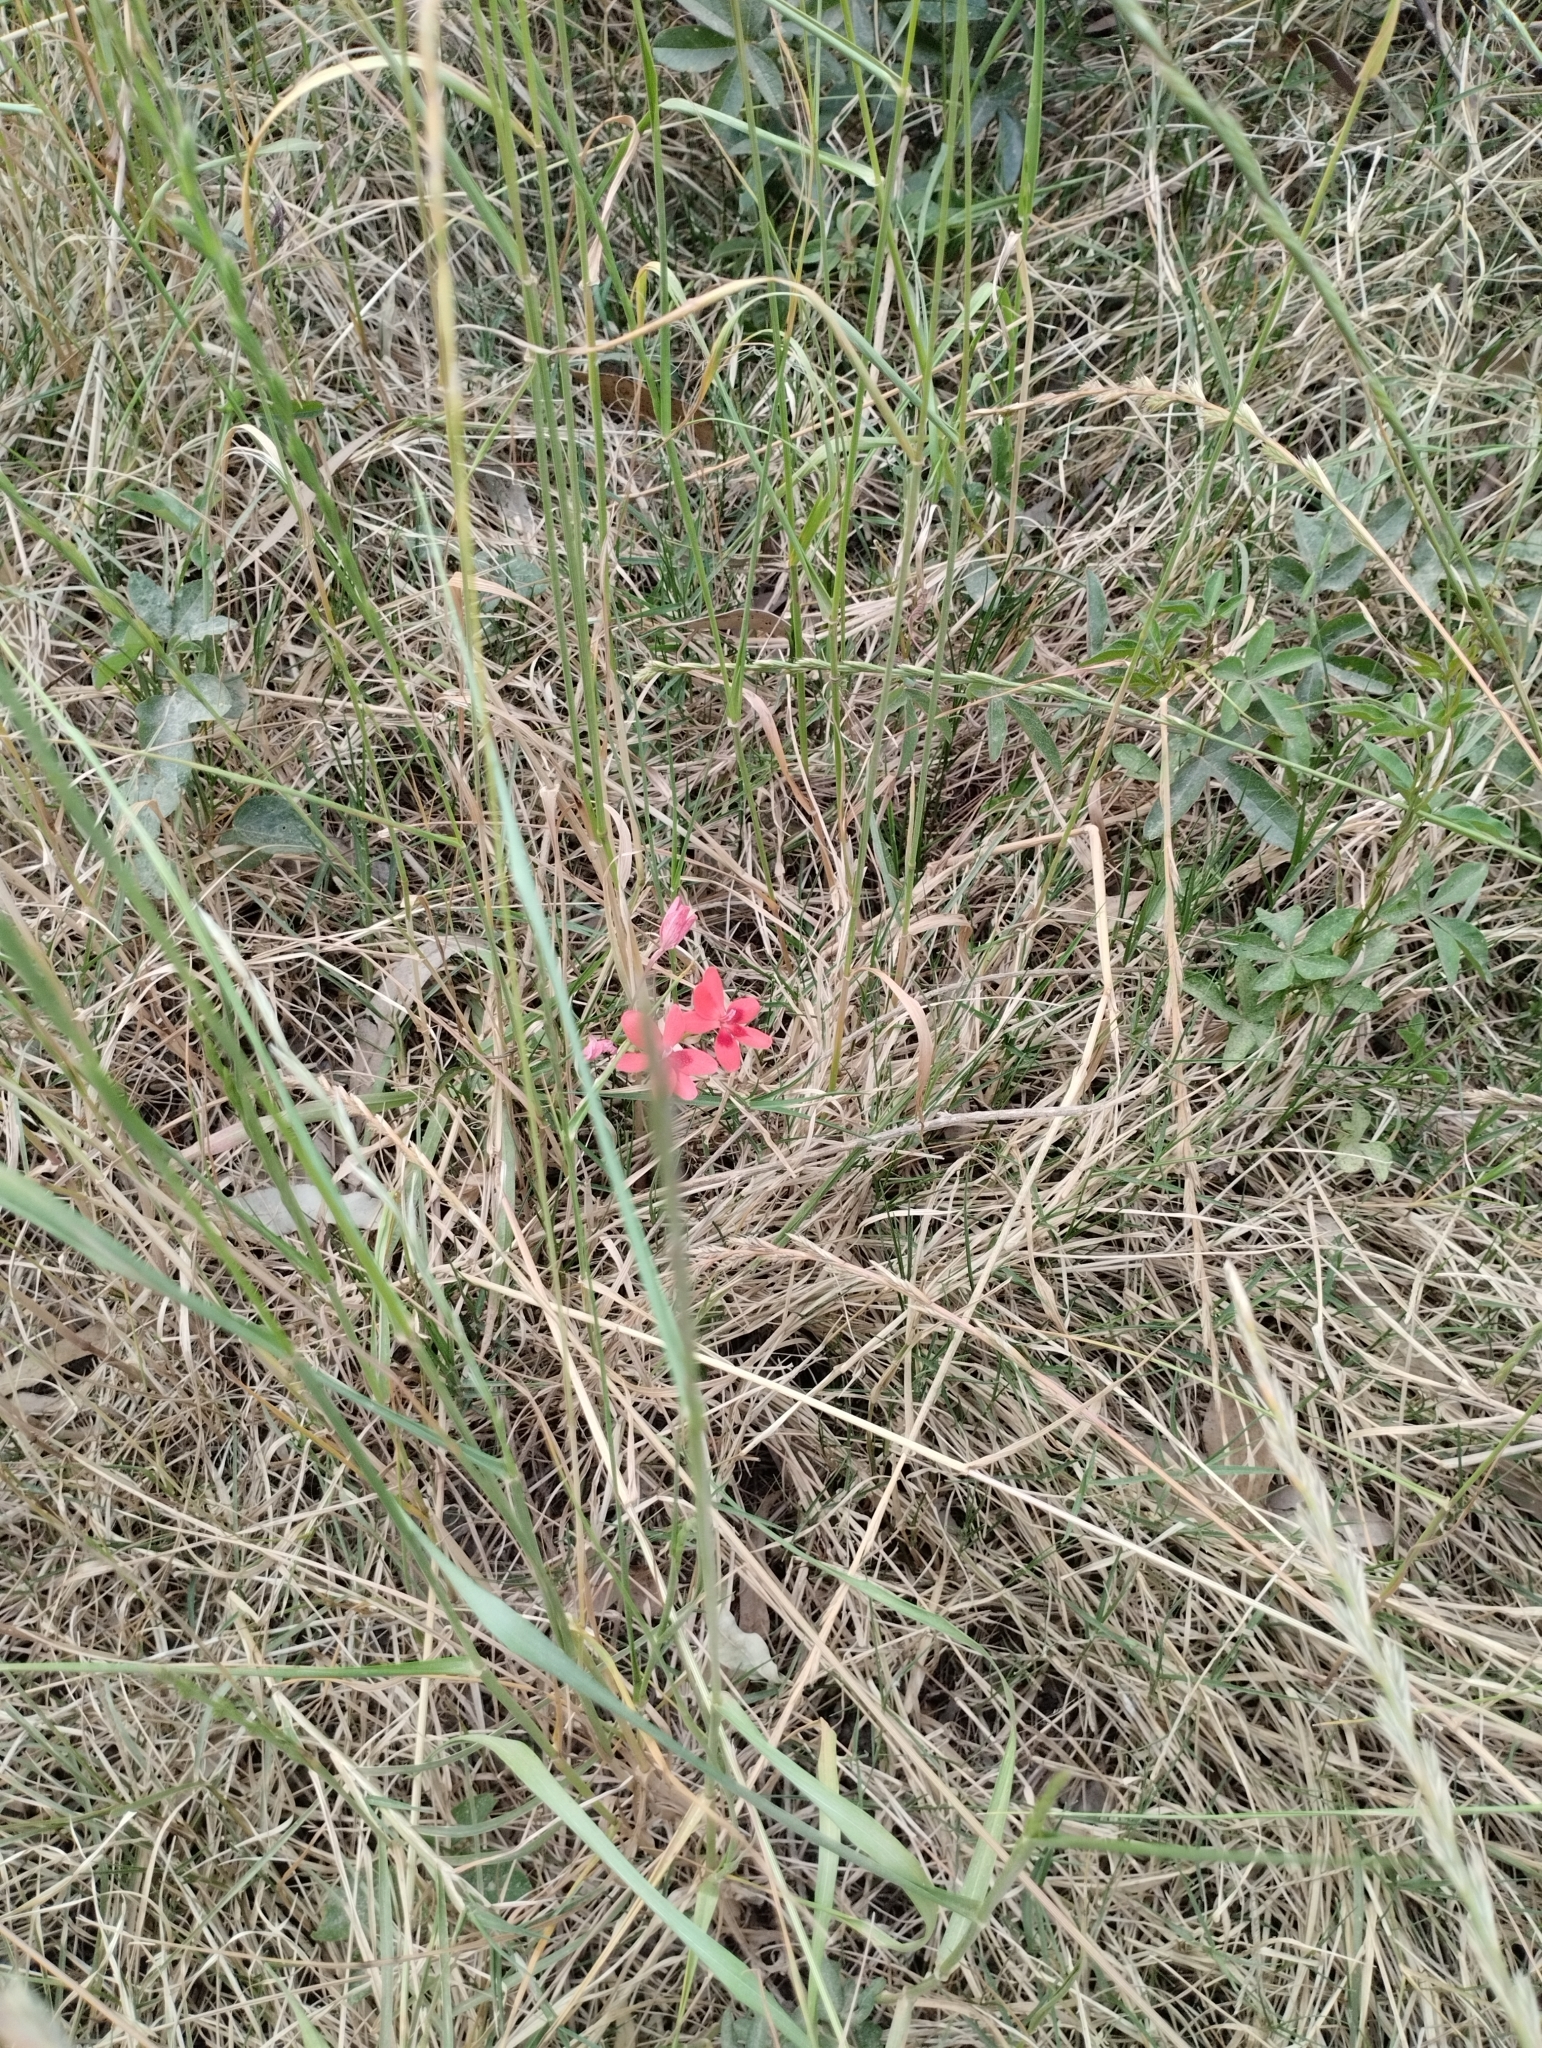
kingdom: Plantae
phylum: Tracheophyta
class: Liliopsida
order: Asparagales
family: Iridaceae
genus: Freesia
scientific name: Freesia laxa
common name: False freesia
